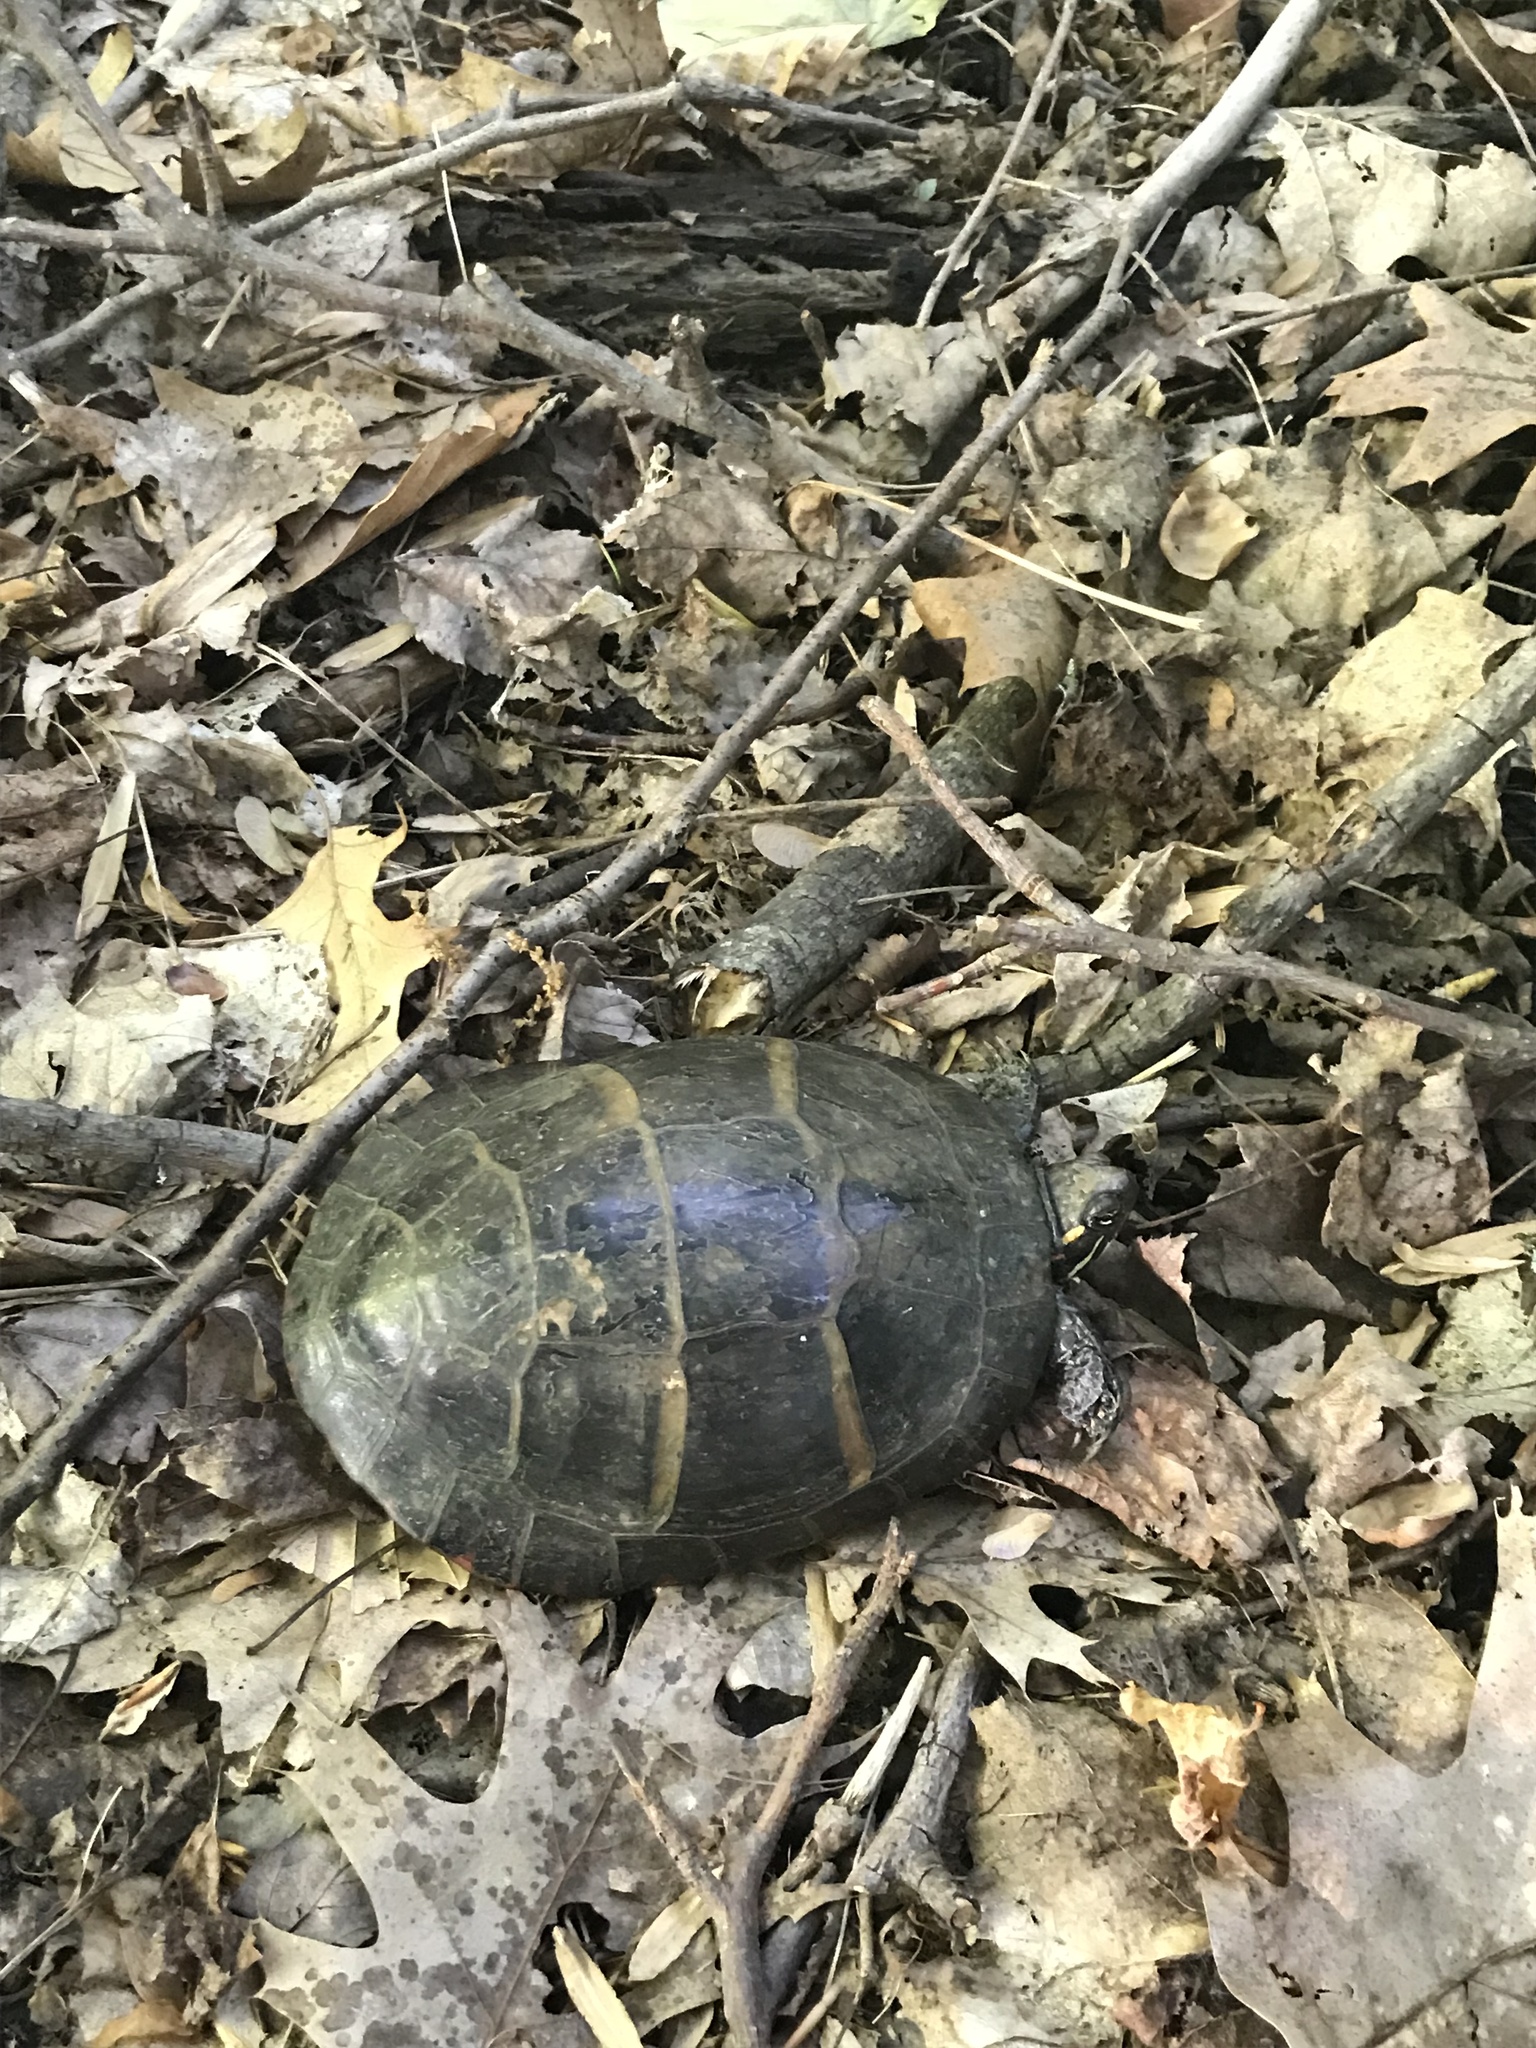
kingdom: Animalia
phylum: Chordata
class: Testudines
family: Emydidae
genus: Chrysemys
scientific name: Chrysemys picta
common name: Painted turtle
